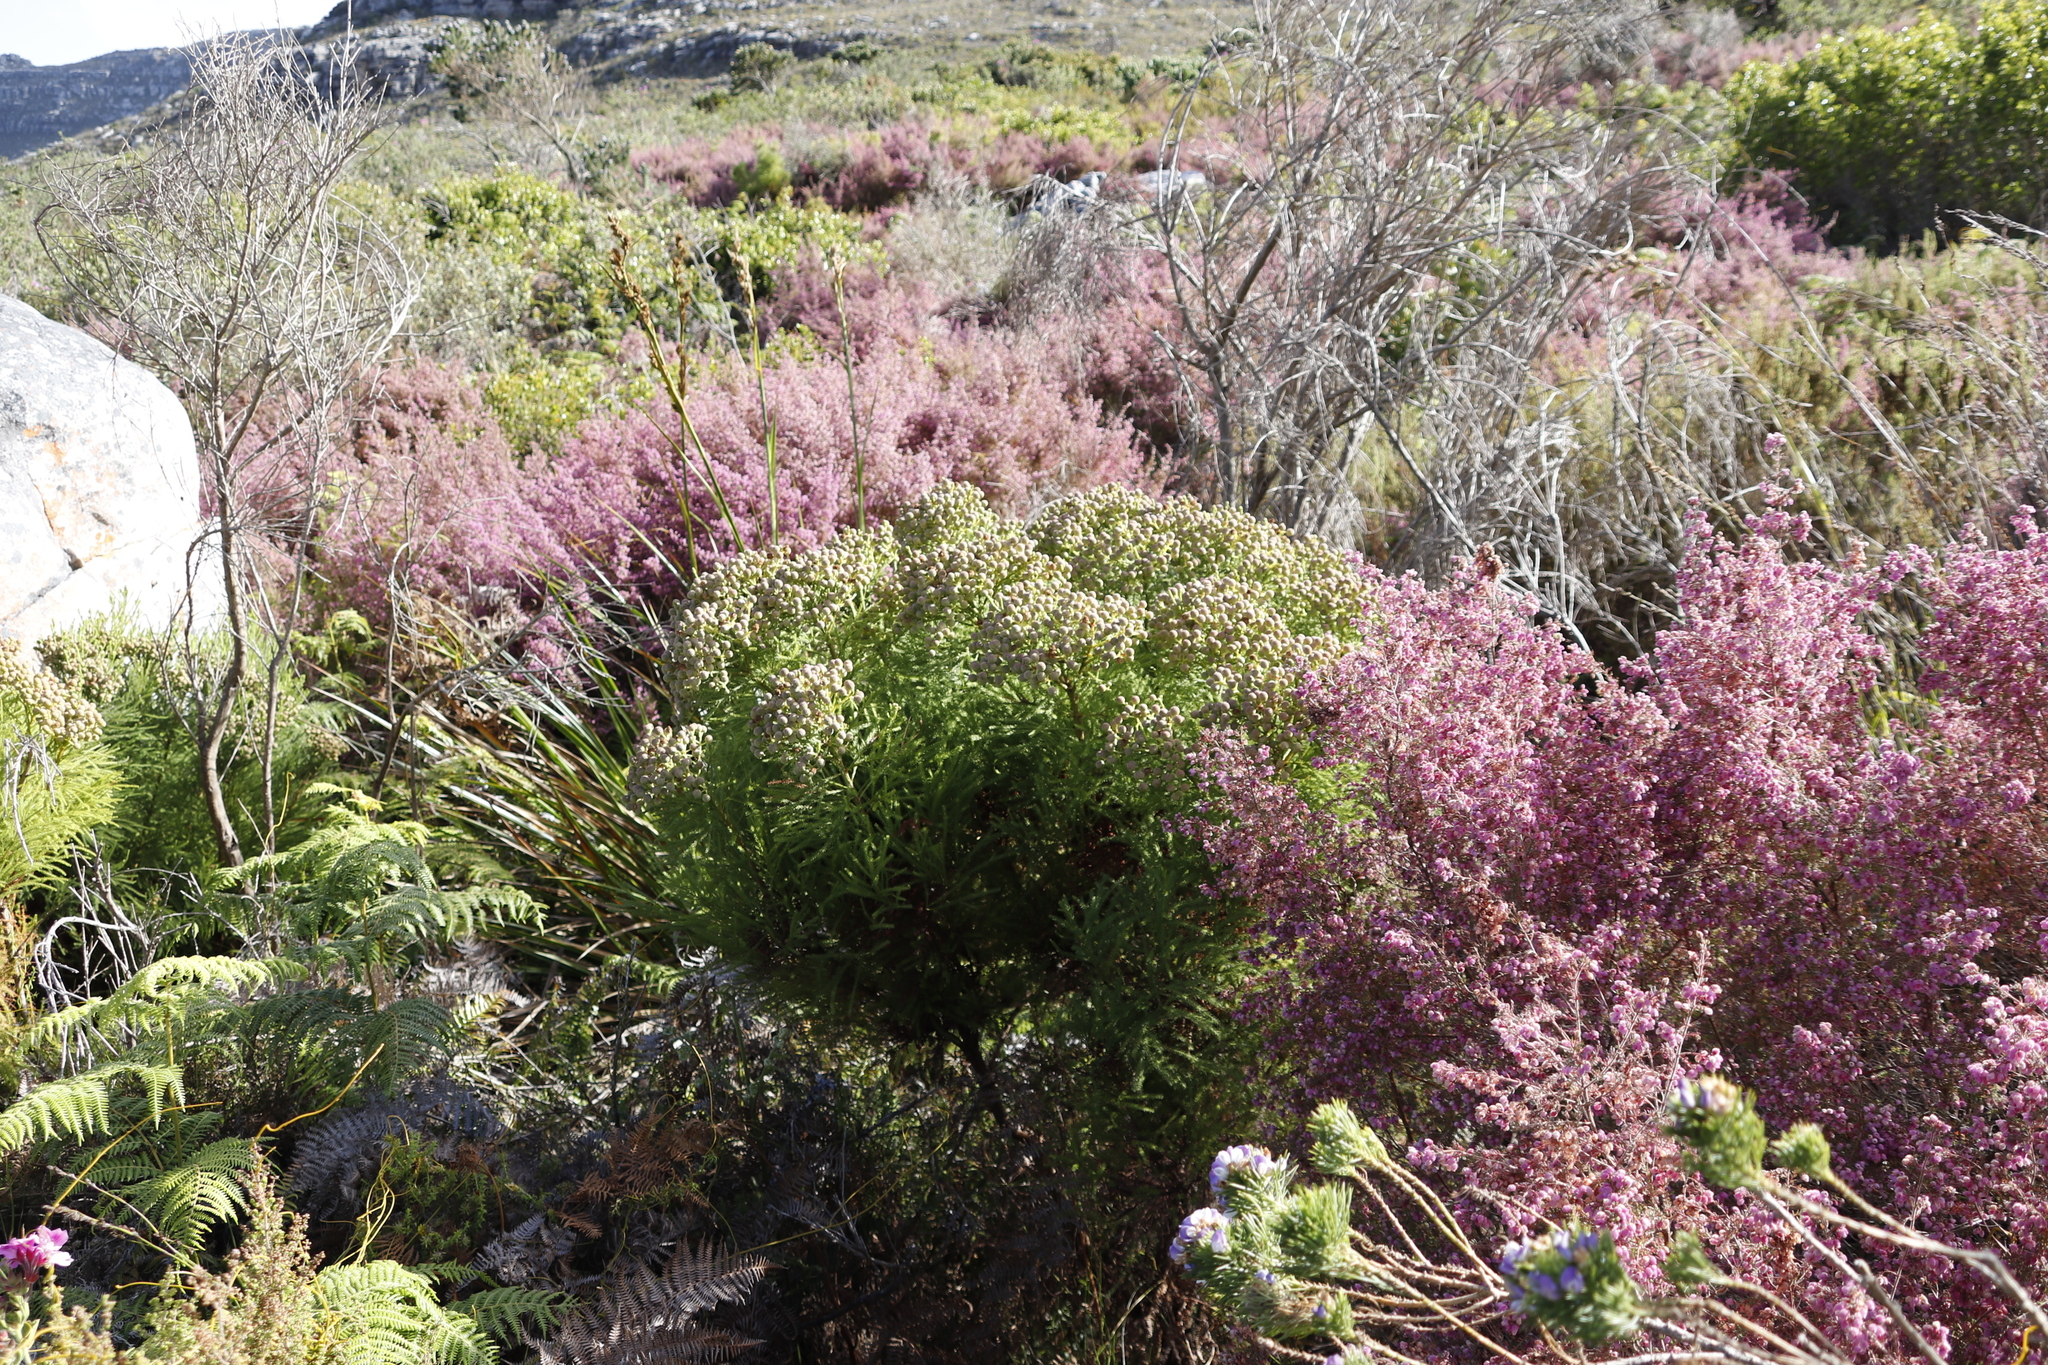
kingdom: Plantae
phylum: Tracheophyta
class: Magnoliopsida
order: Ericales
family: Ericaceae
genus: Erica
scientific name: Erica parviflora
